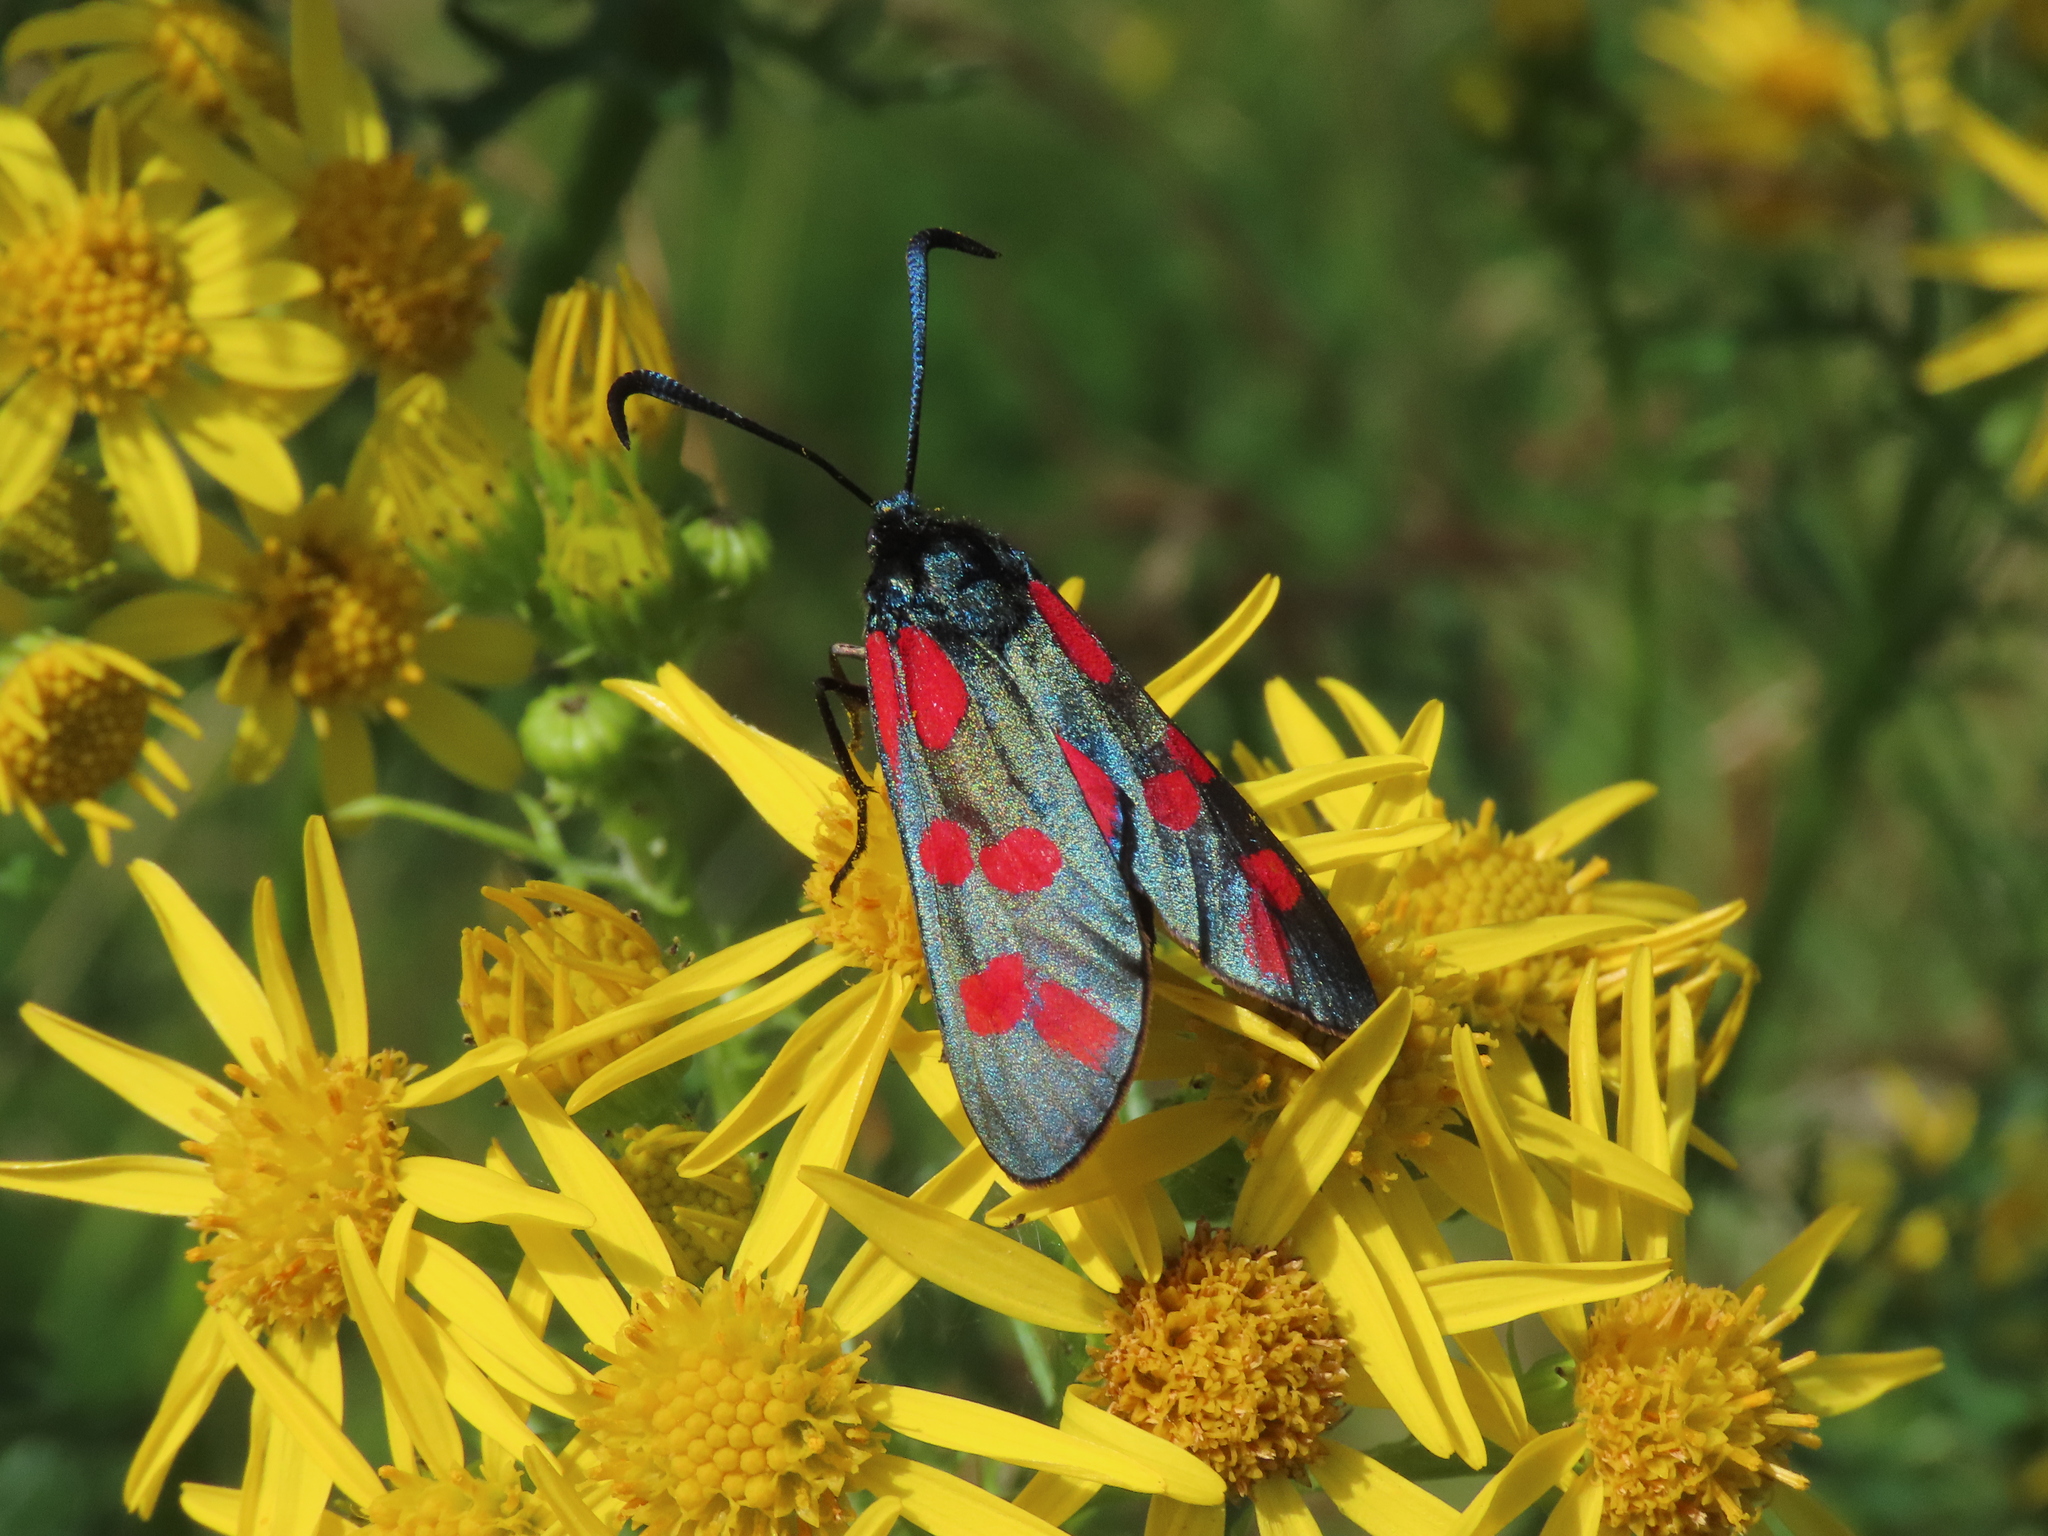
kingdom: Animalia
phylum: Arthropoda
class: Insecta
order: Lepidoptera
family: Zygaenidae
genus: Zygaena
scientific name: Zygaena filipendulae
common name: Six-spot burnet
